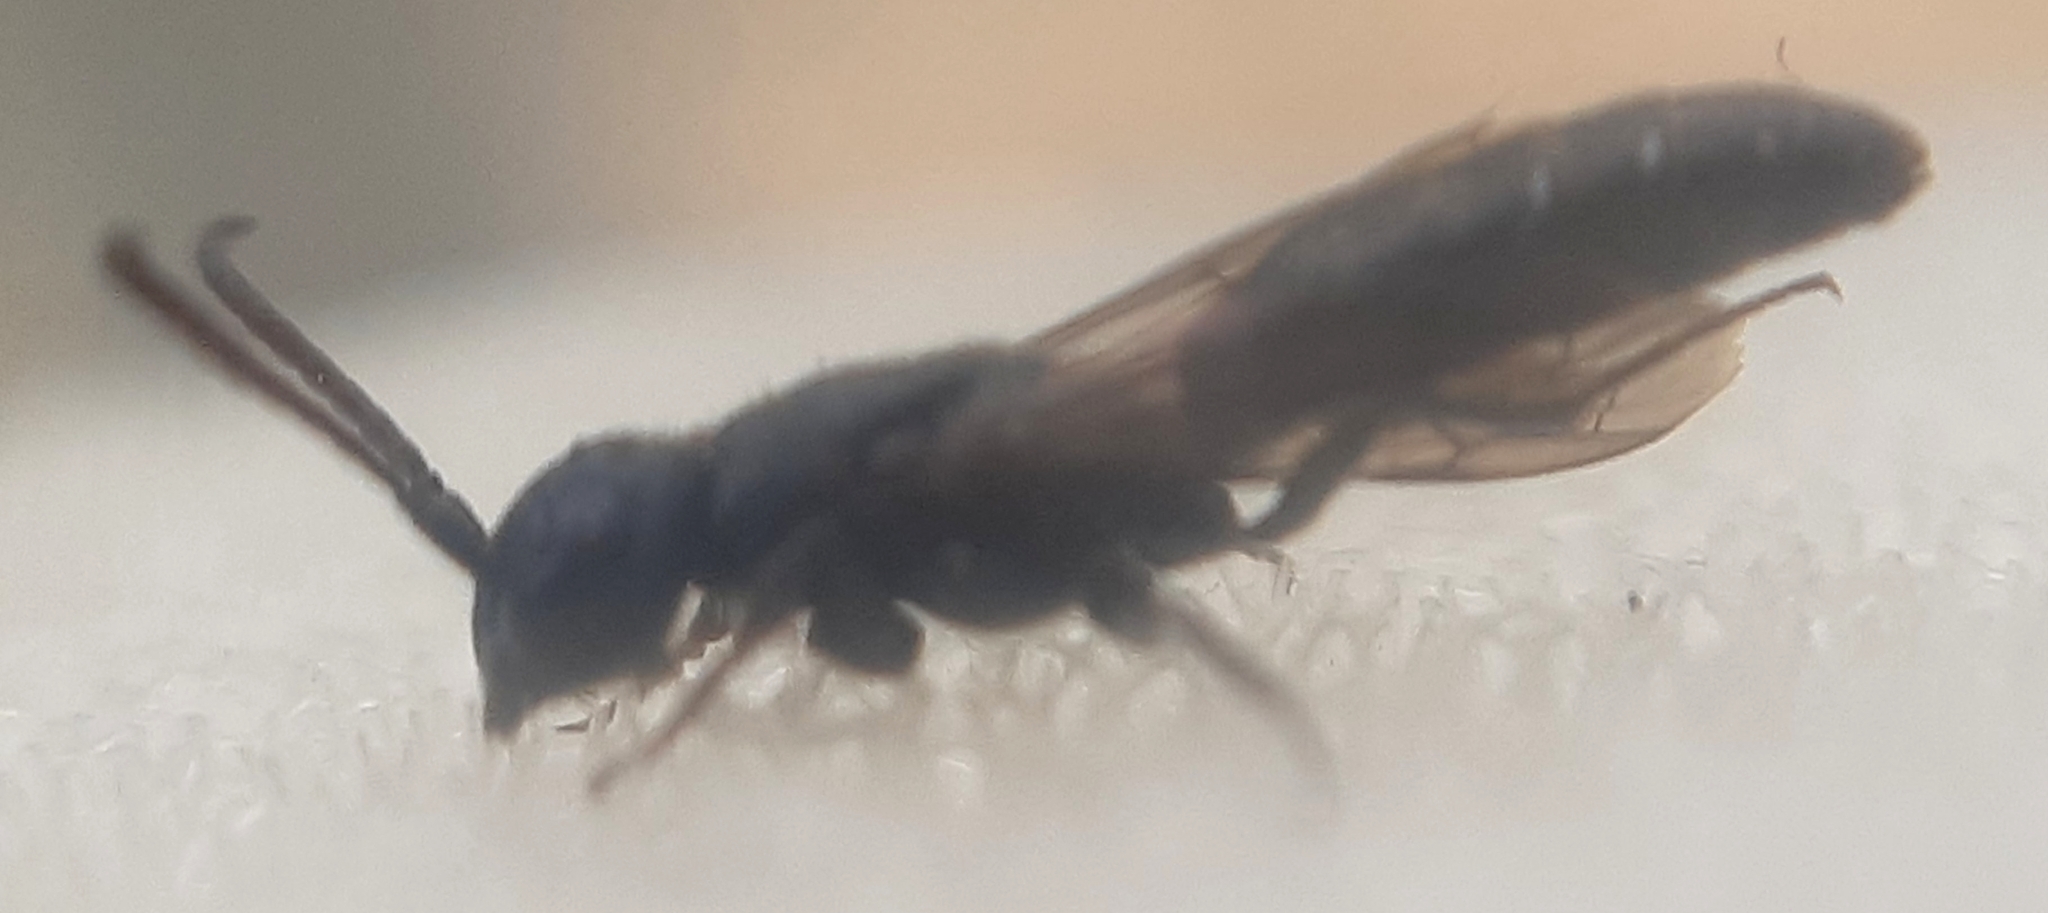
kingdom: Animalia
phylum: Arthropoda
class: Insecta
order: Hymenoptera
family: Sapygidae
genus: Sapygina
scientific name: Sapygina decemguttata
